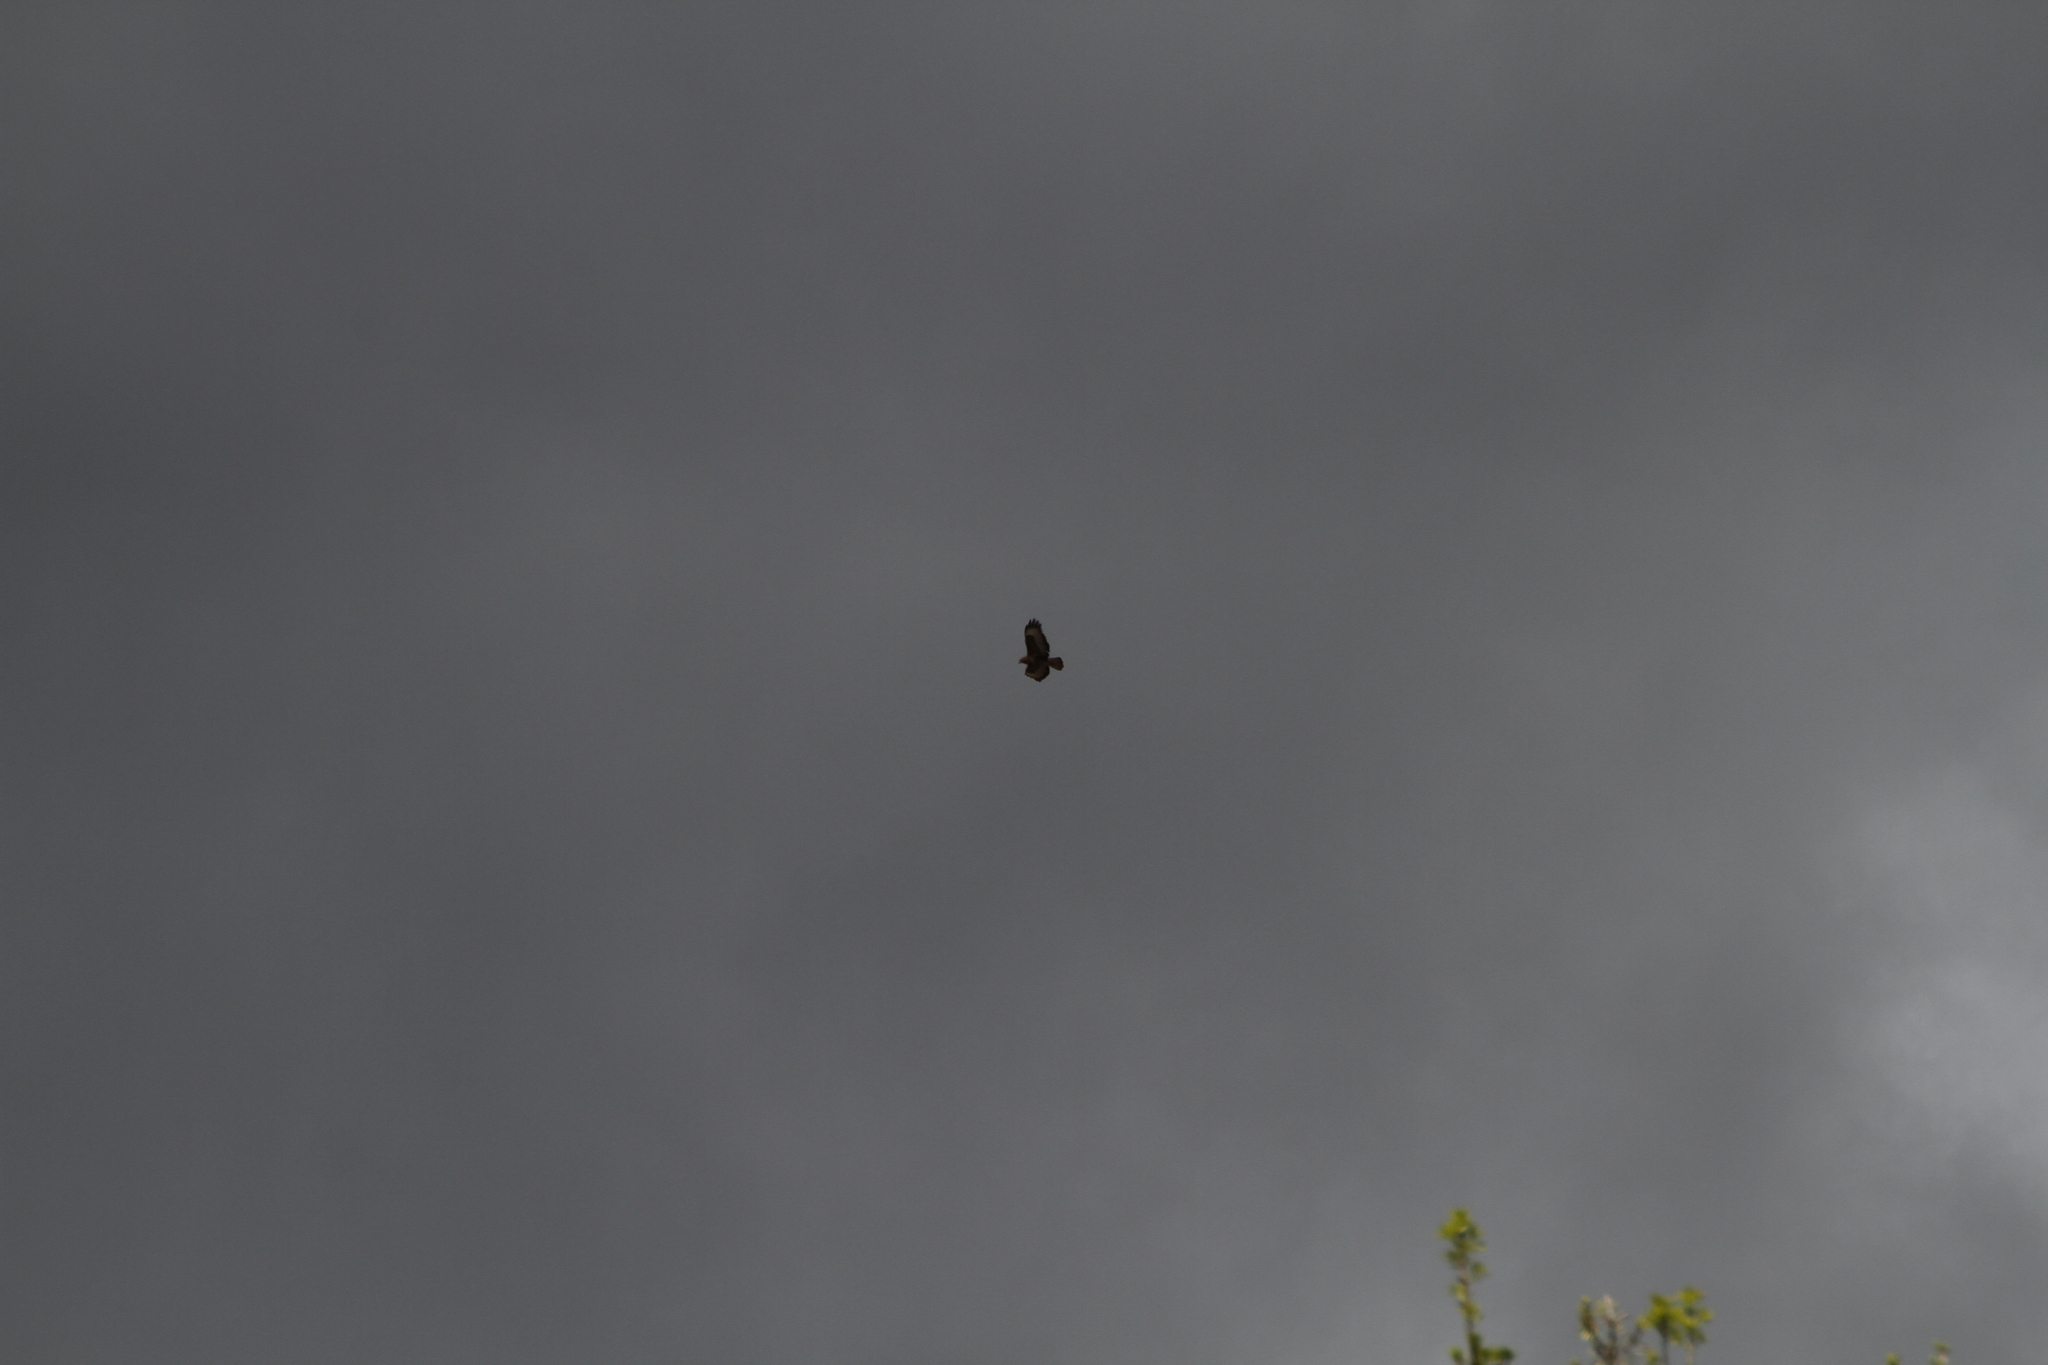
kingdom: Animalia
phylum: Chordata
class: Aves
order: Accipitriformes
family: Accipitridae
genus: Buteo
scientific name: Buteo buteo
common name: Common buzzard
